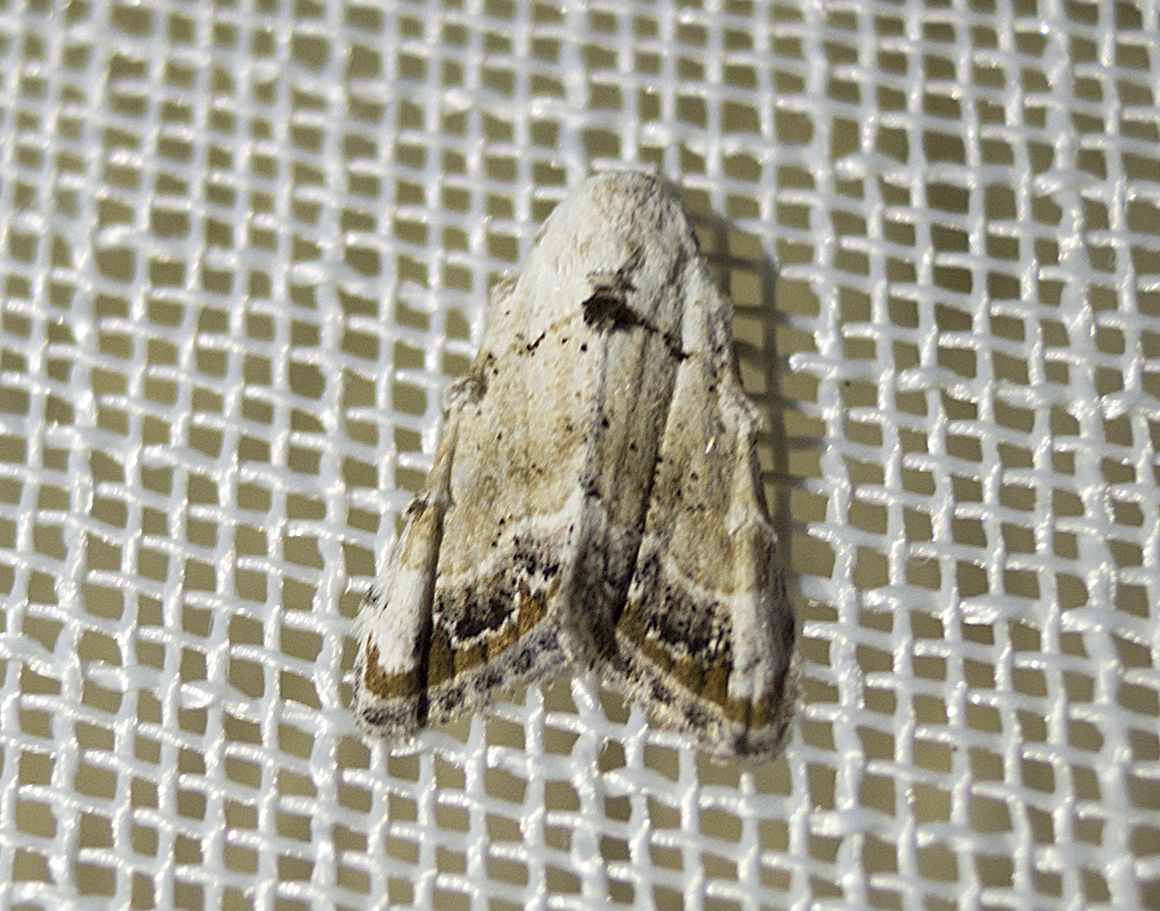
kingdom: Animalia
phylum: Arthropoda
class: Insecta
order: Lepidoptera
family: Nolidae
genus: Nola
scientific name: Nola chlamitulalis
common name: Jersey black arches
